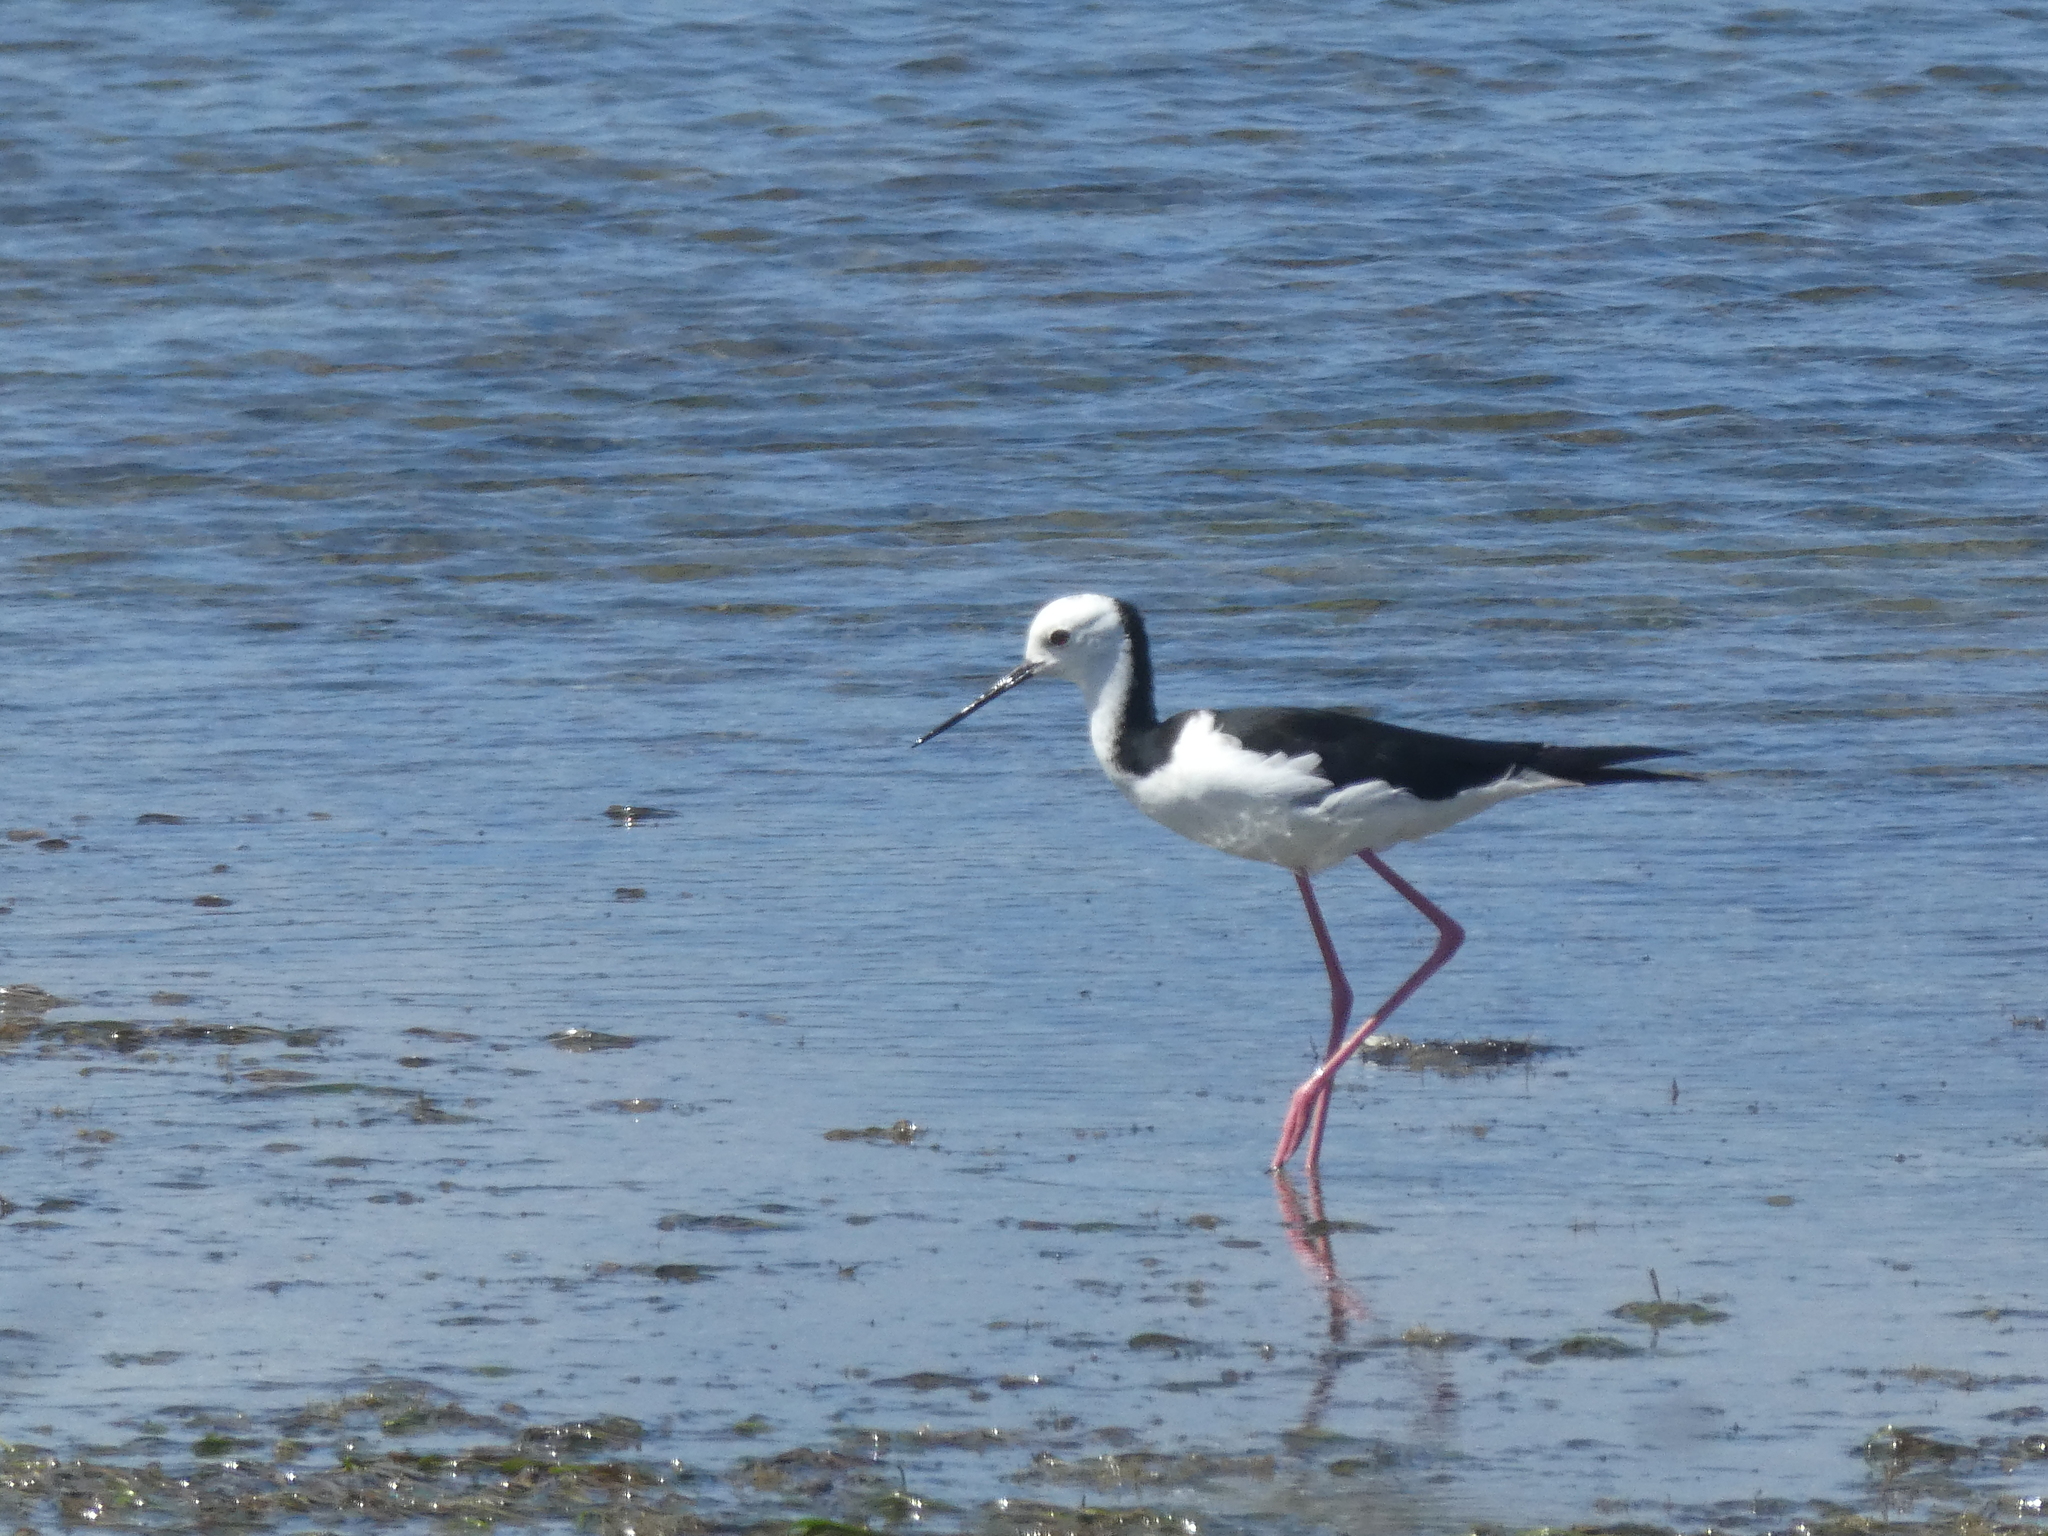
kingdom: Animalia
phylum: Chordata
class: Aves
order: Charadriiformes
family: Recurvirostridae
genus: Himantopus
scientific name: Himantopus leucocephalus
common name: White-headed stilt
